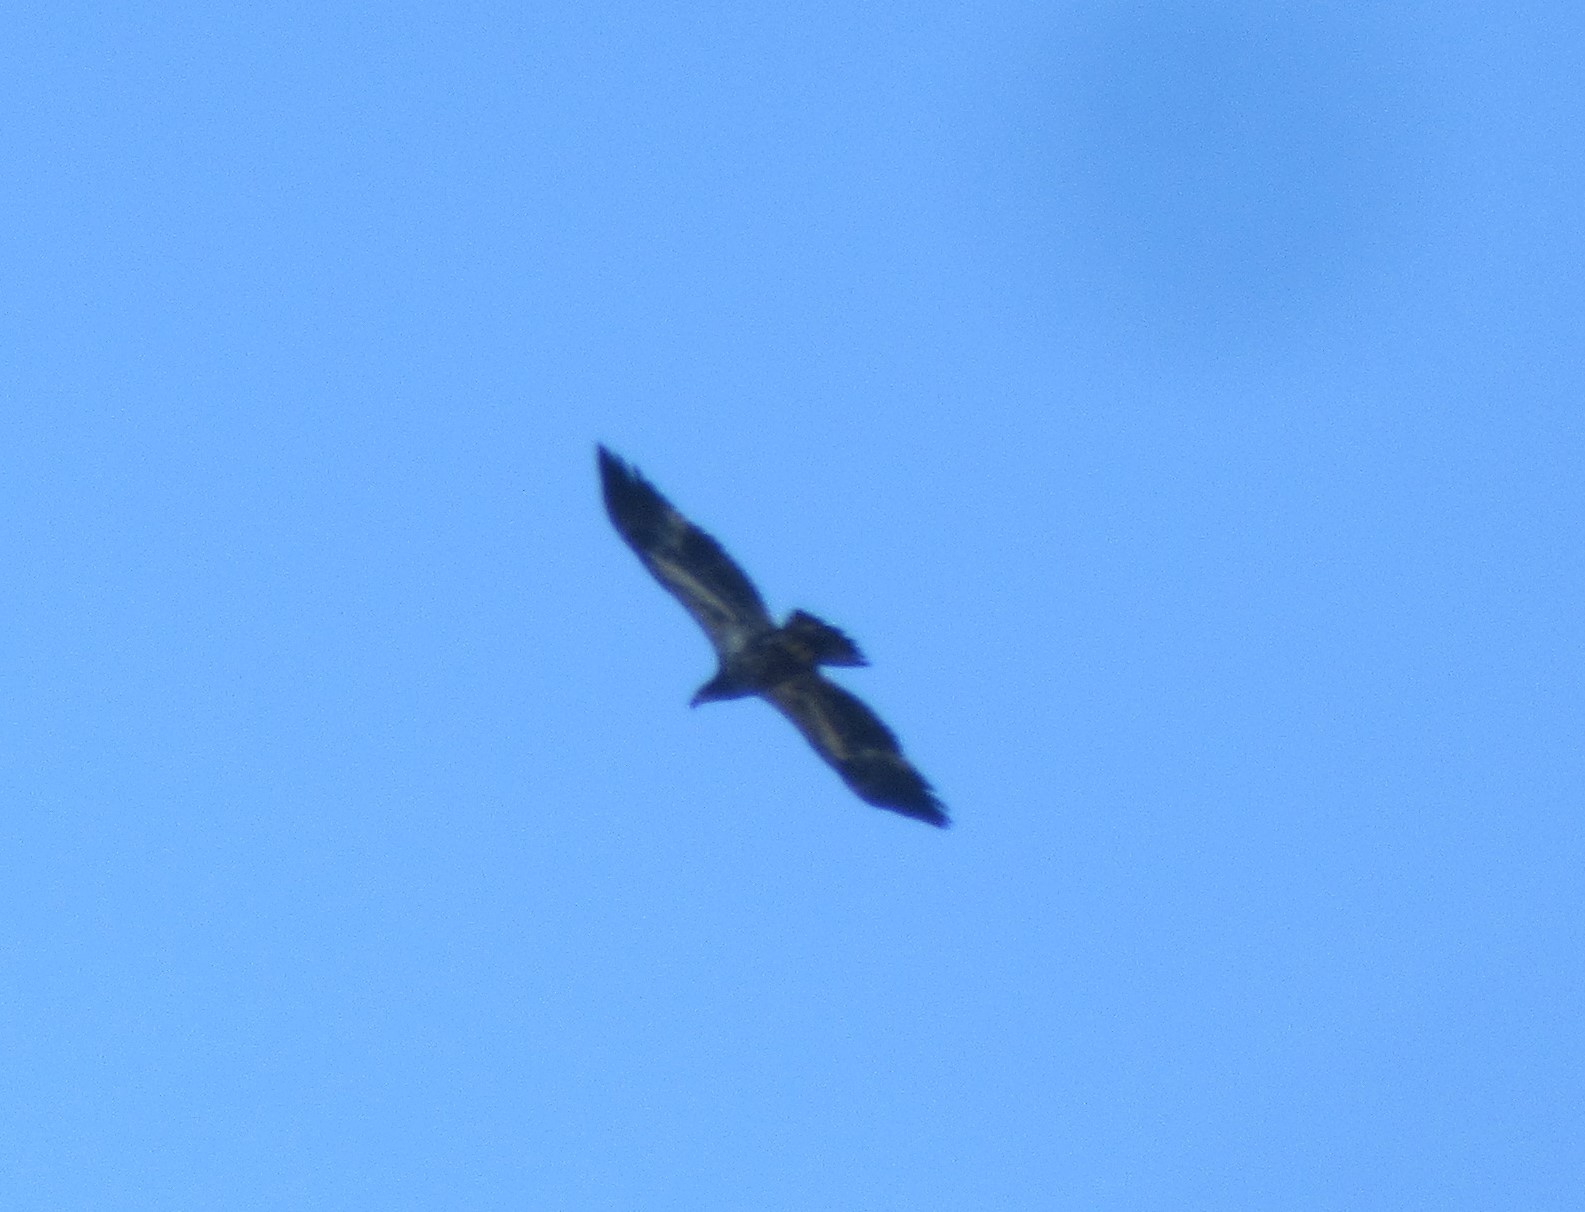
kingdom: Animalia
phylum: Chordata
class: Aves
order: Accipitriformes
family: Accipitridae
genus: Haliaeetus
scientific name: Haliaeetus leucocephalus
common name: Bald eagle
